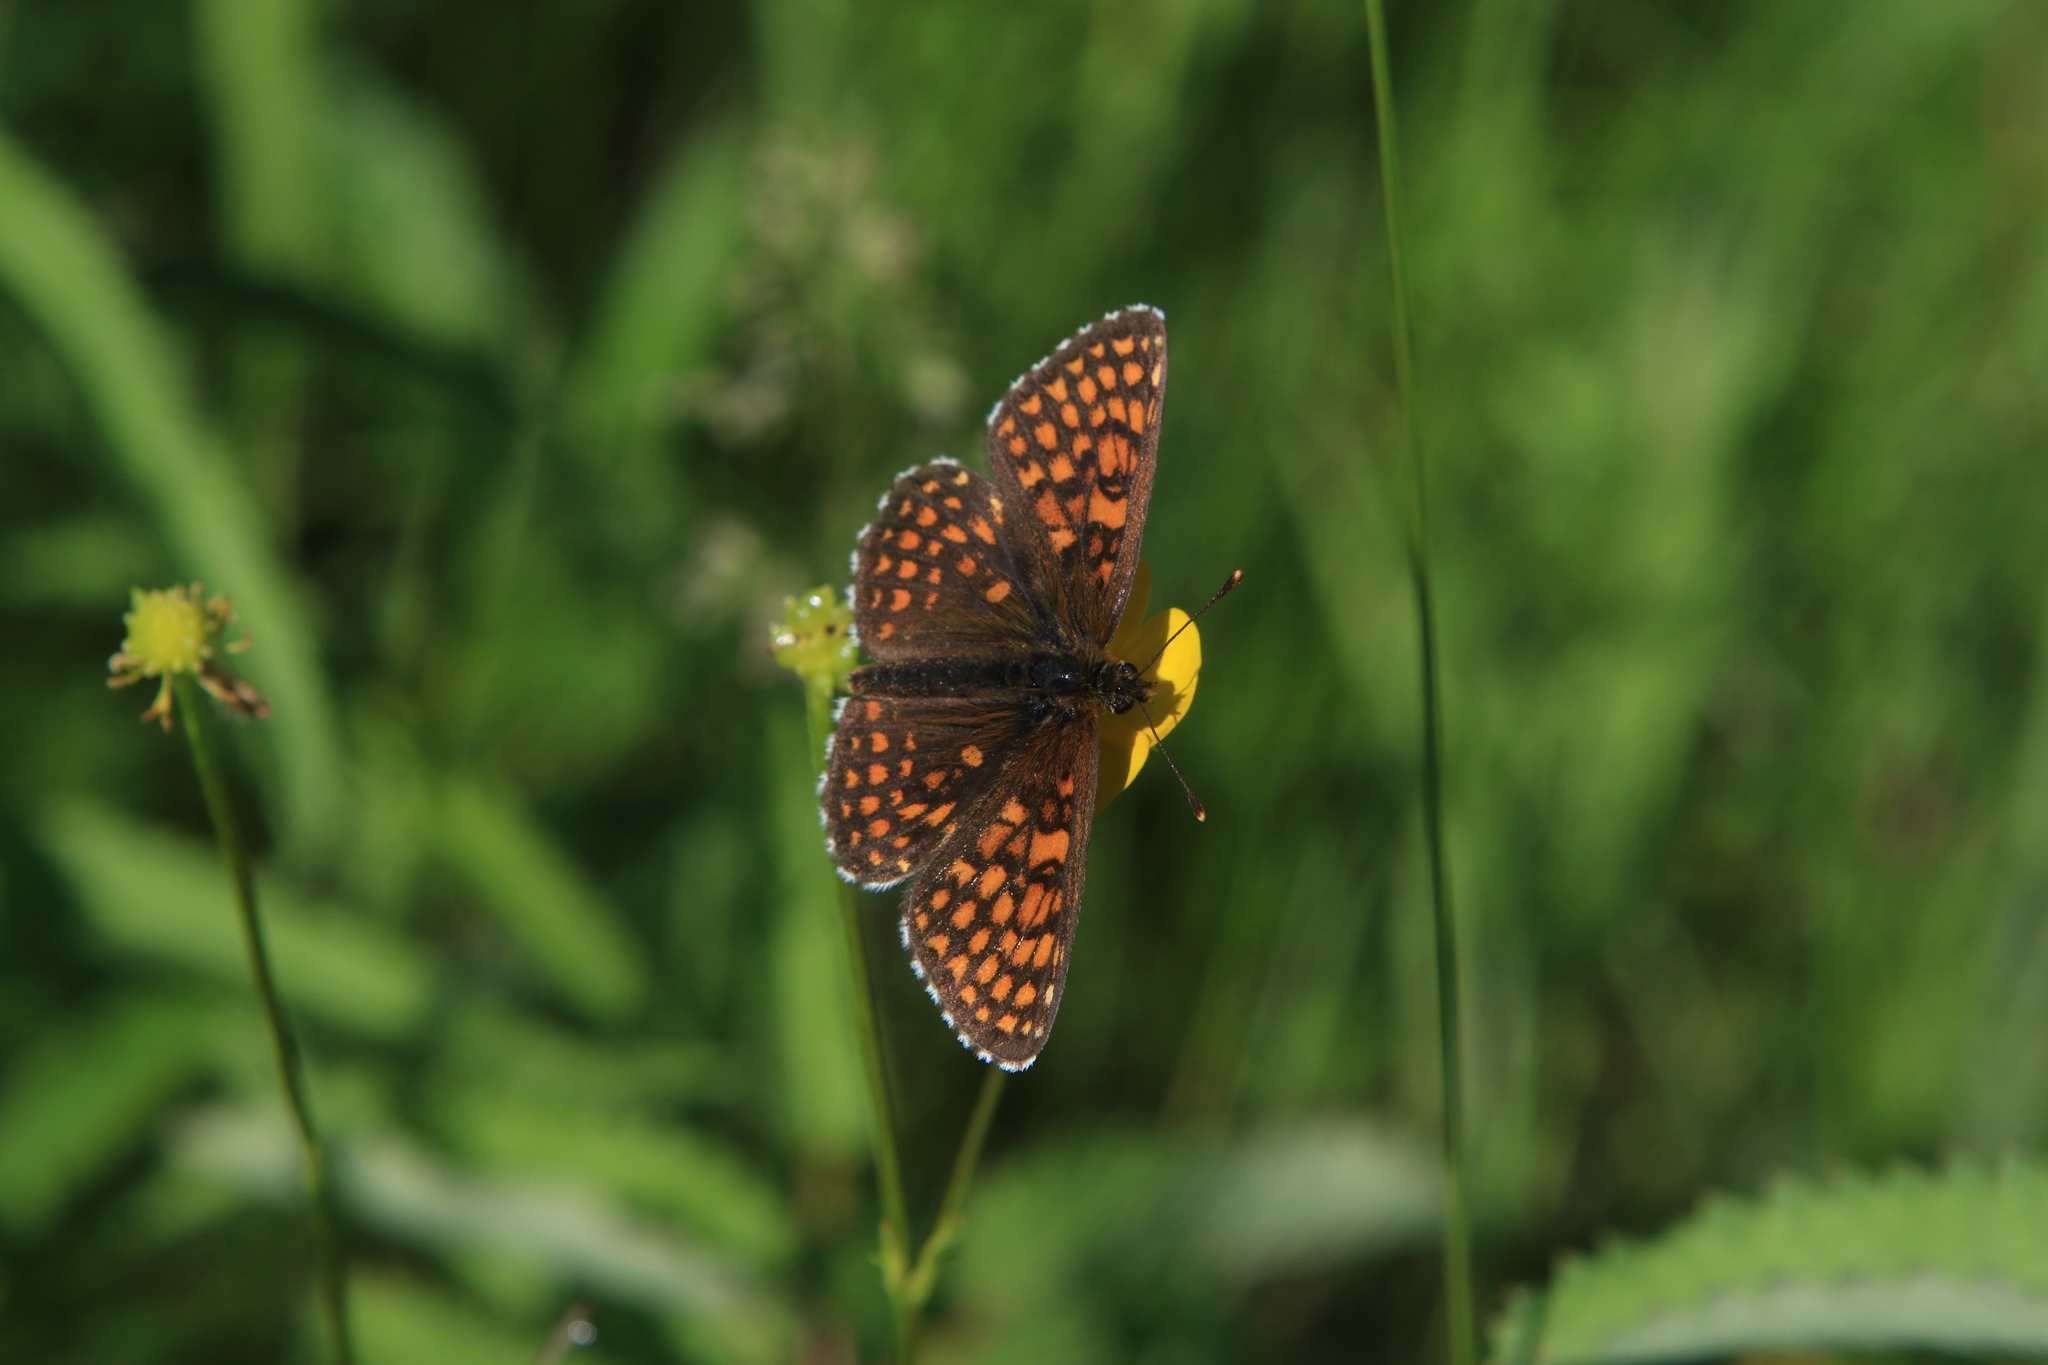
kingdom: Animalia
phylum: Arthropoda
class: Insecta
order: Lepidoptera
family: Nymphalidae
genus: Melitaea
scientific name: Melitaea
